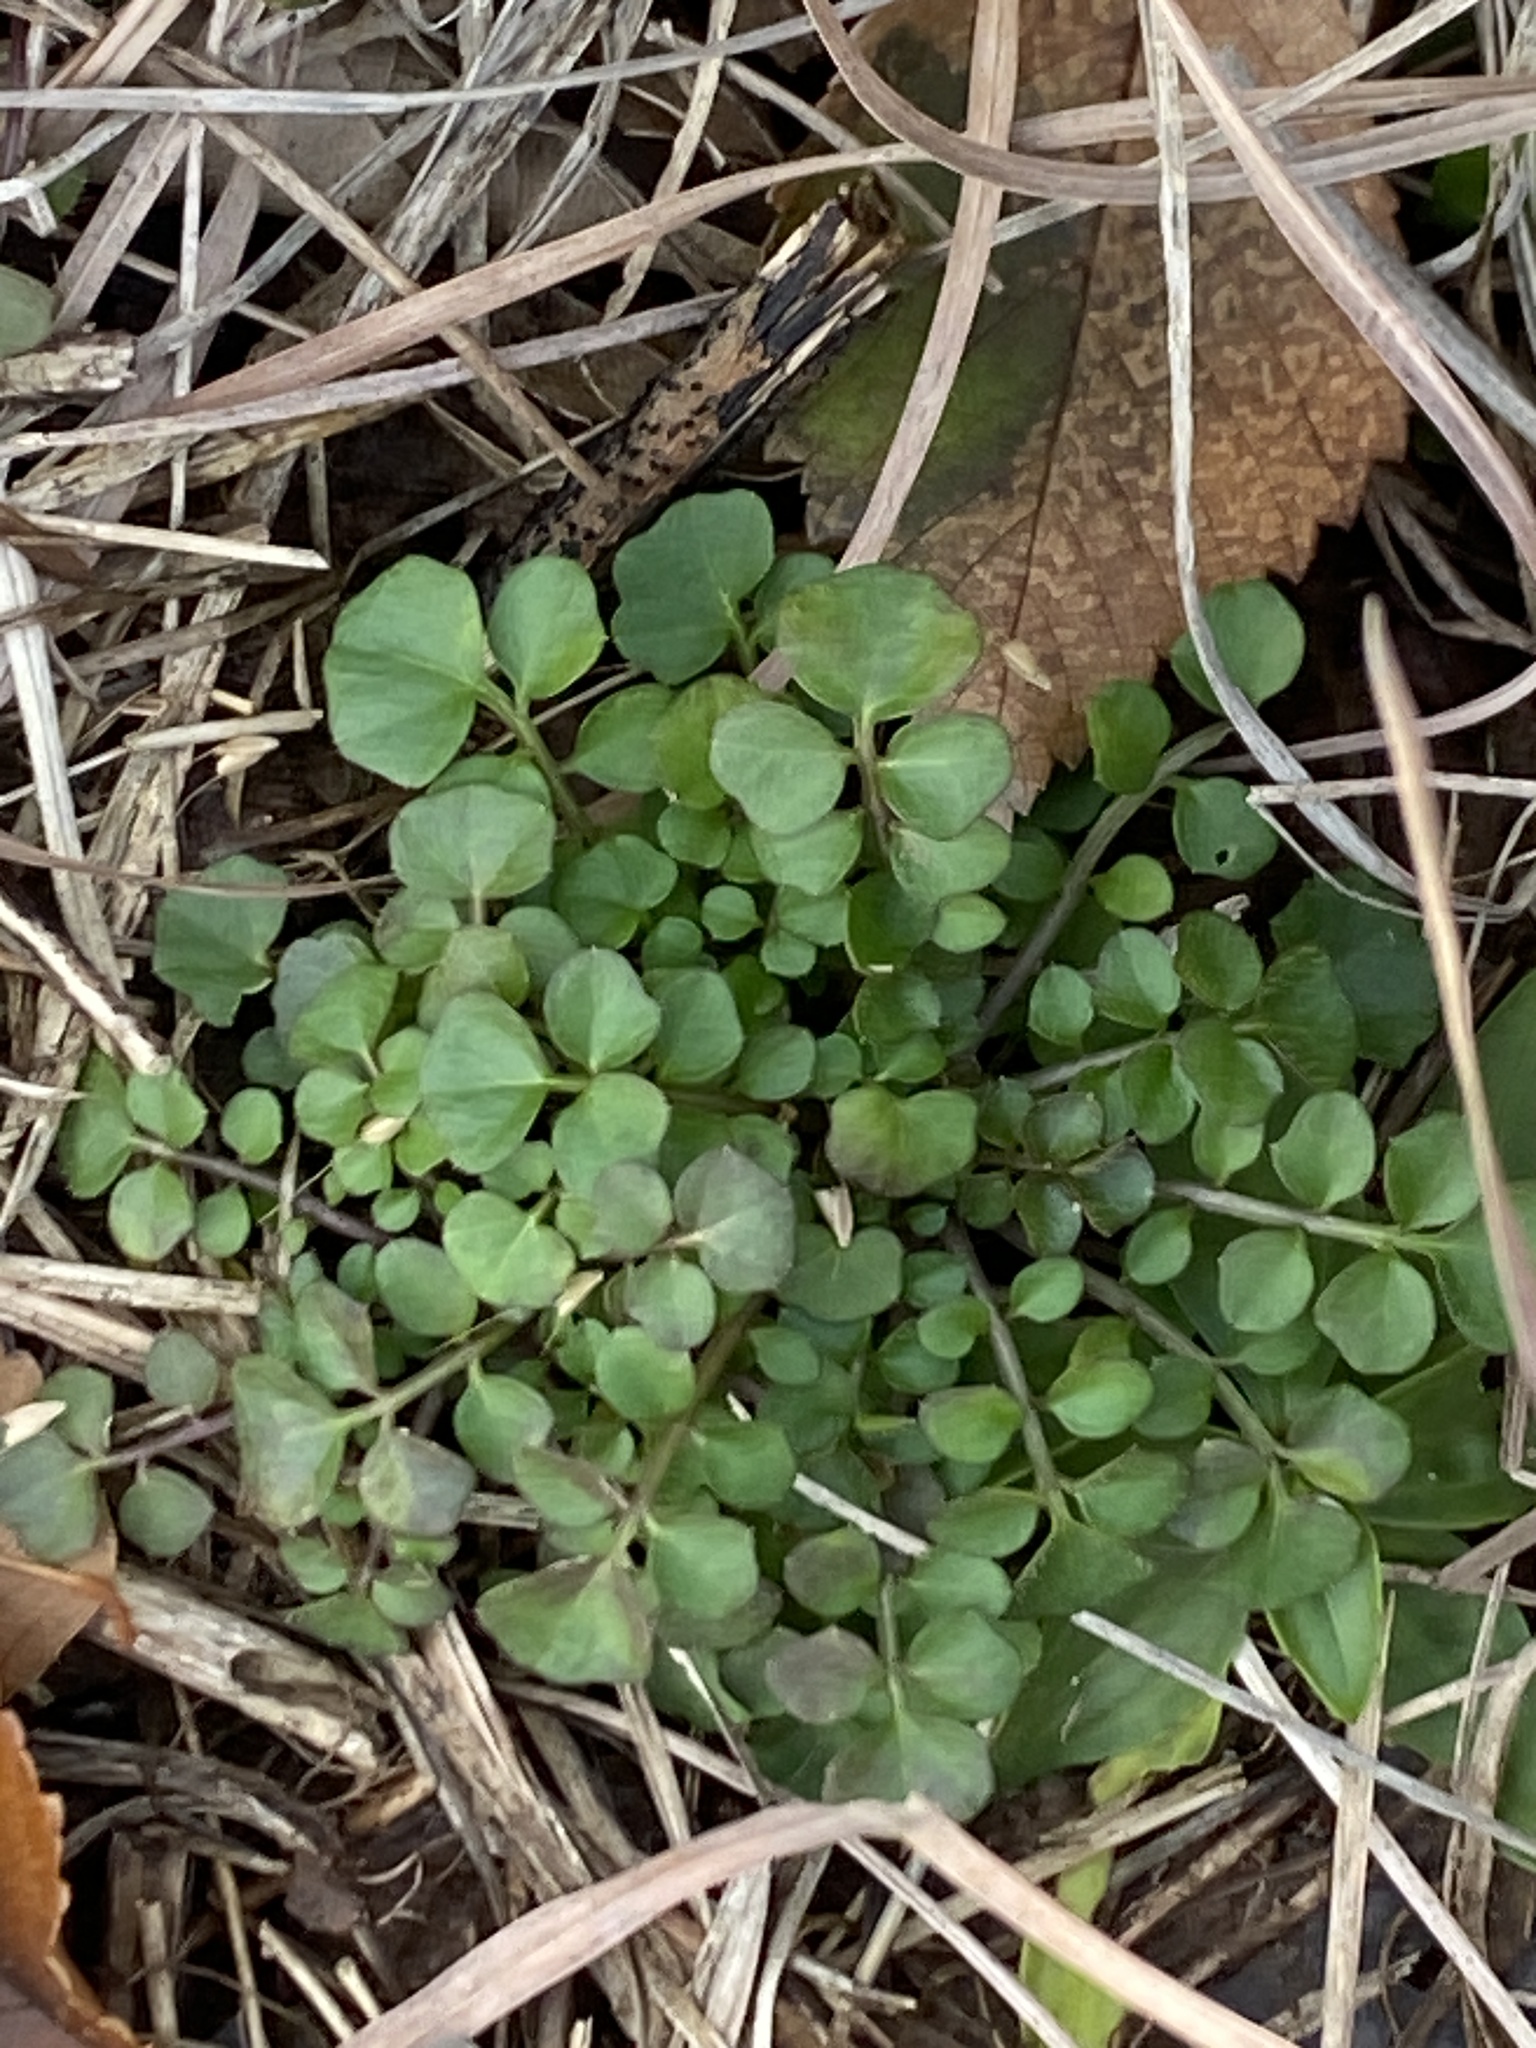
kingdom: Plantae
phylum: Tracheophyta
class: Magnoliopsida
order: Brassicales
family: Brassicaceae
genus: Cardamine
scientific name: Cardamine hirsuta
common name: Hairy bittercress
